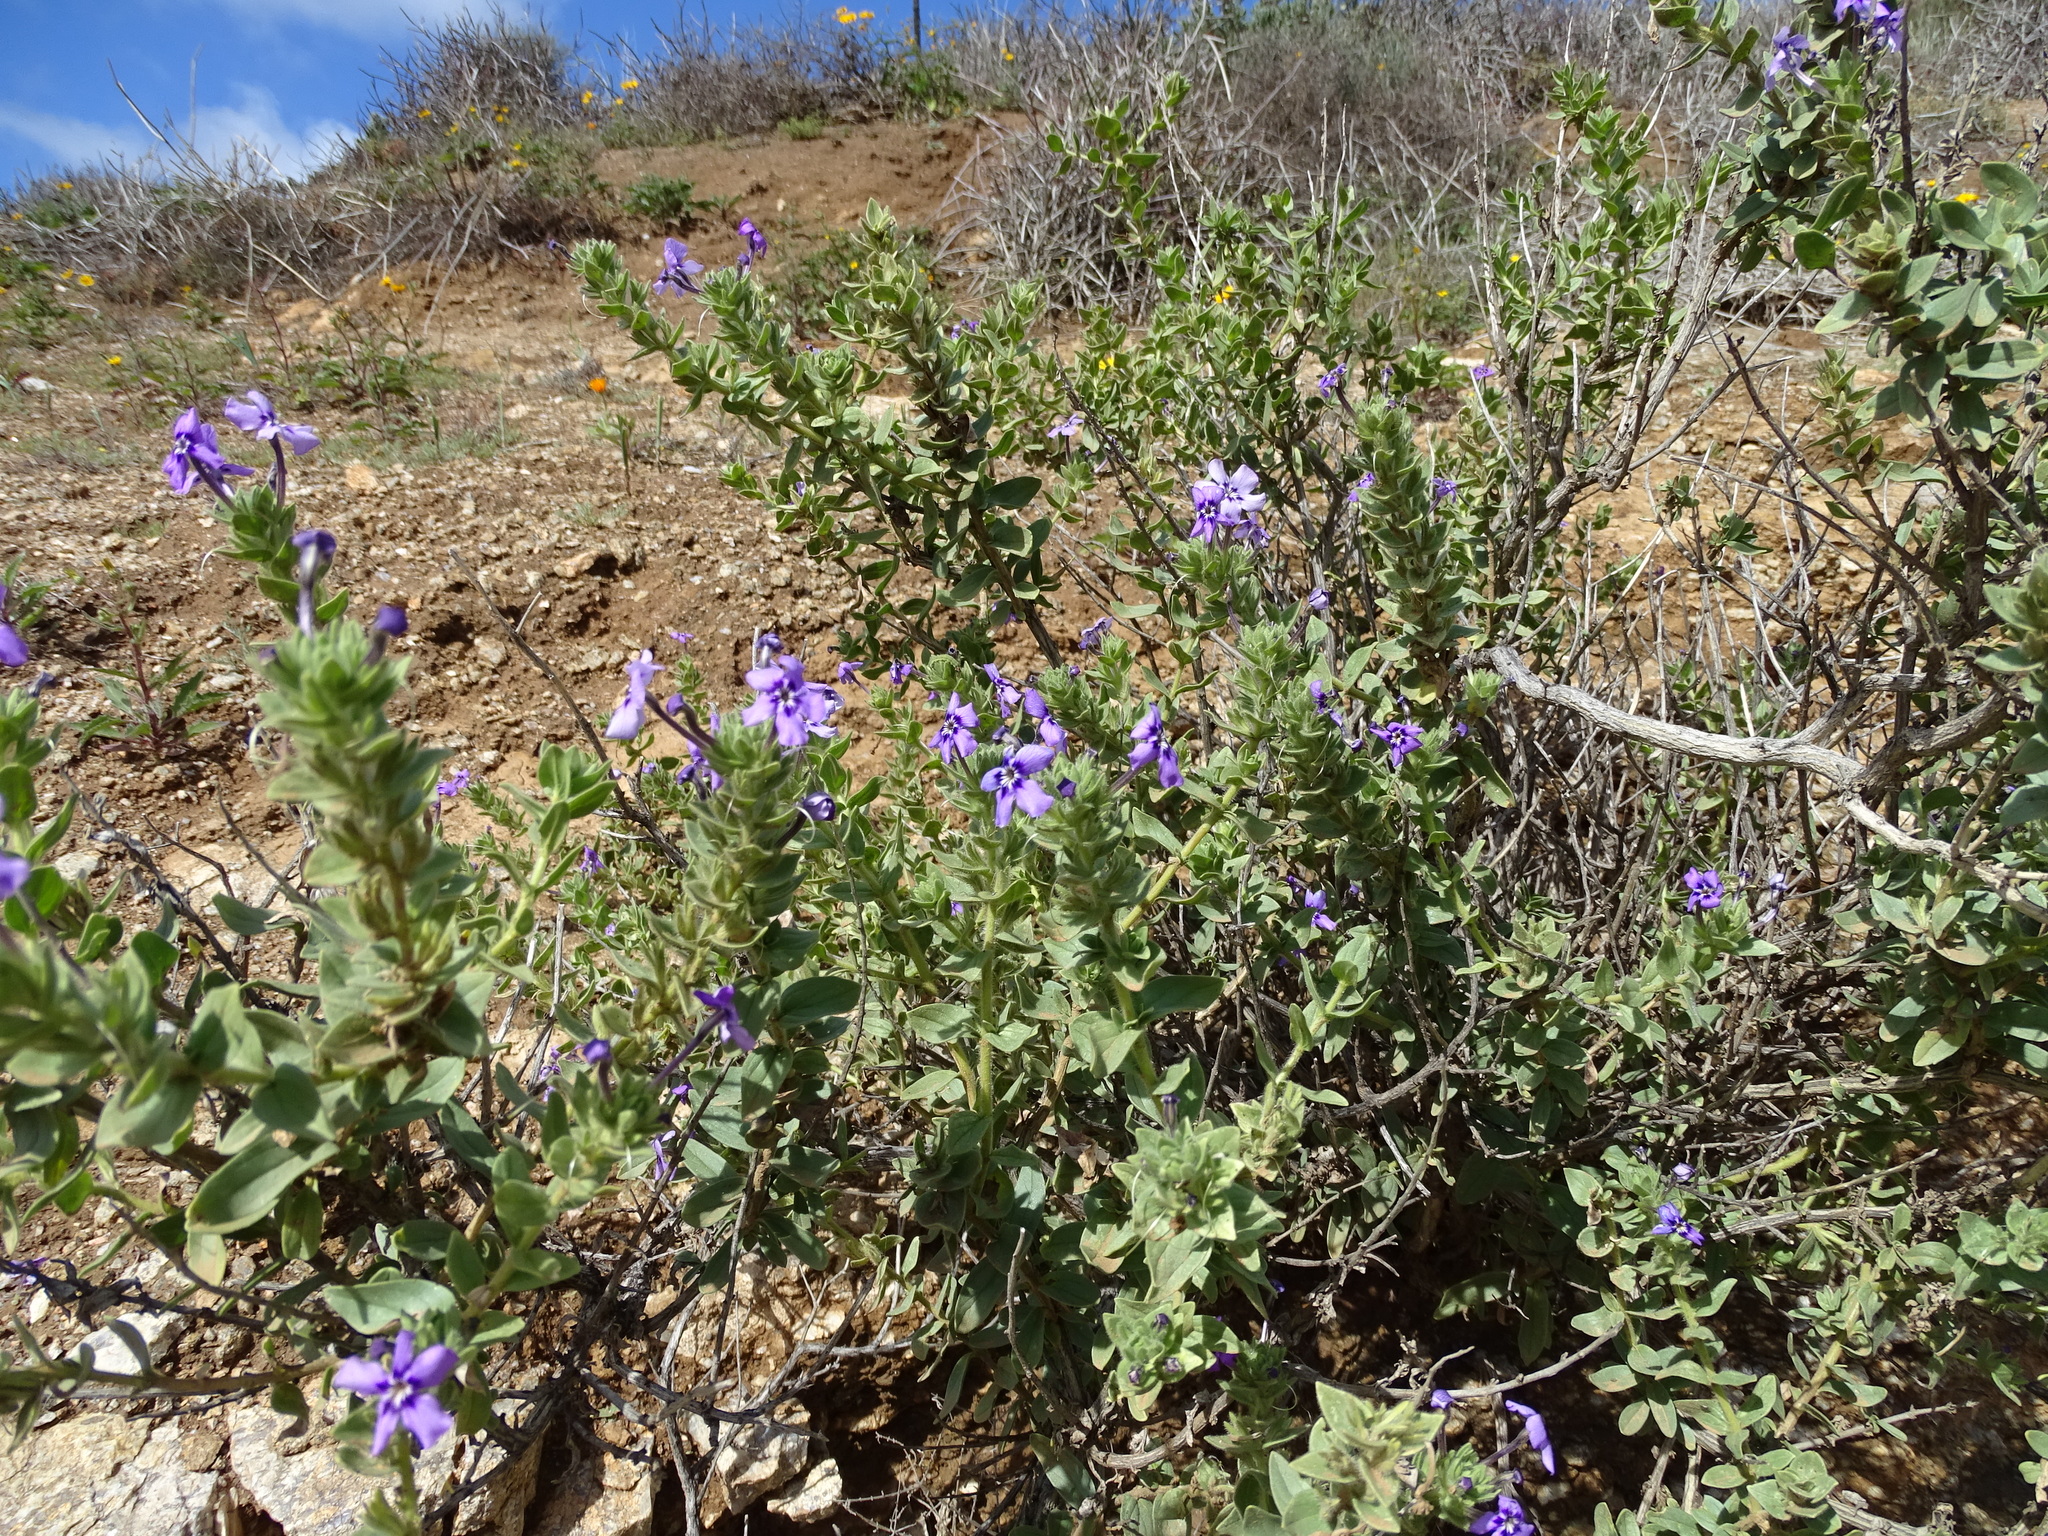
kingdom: Plantae
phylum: Tracheophyta
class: Magnoliopsida
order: Lamiales
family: Scrophulariaceae
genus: Jamesbrittenia
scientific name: Jamesbrittenia fruticosa
